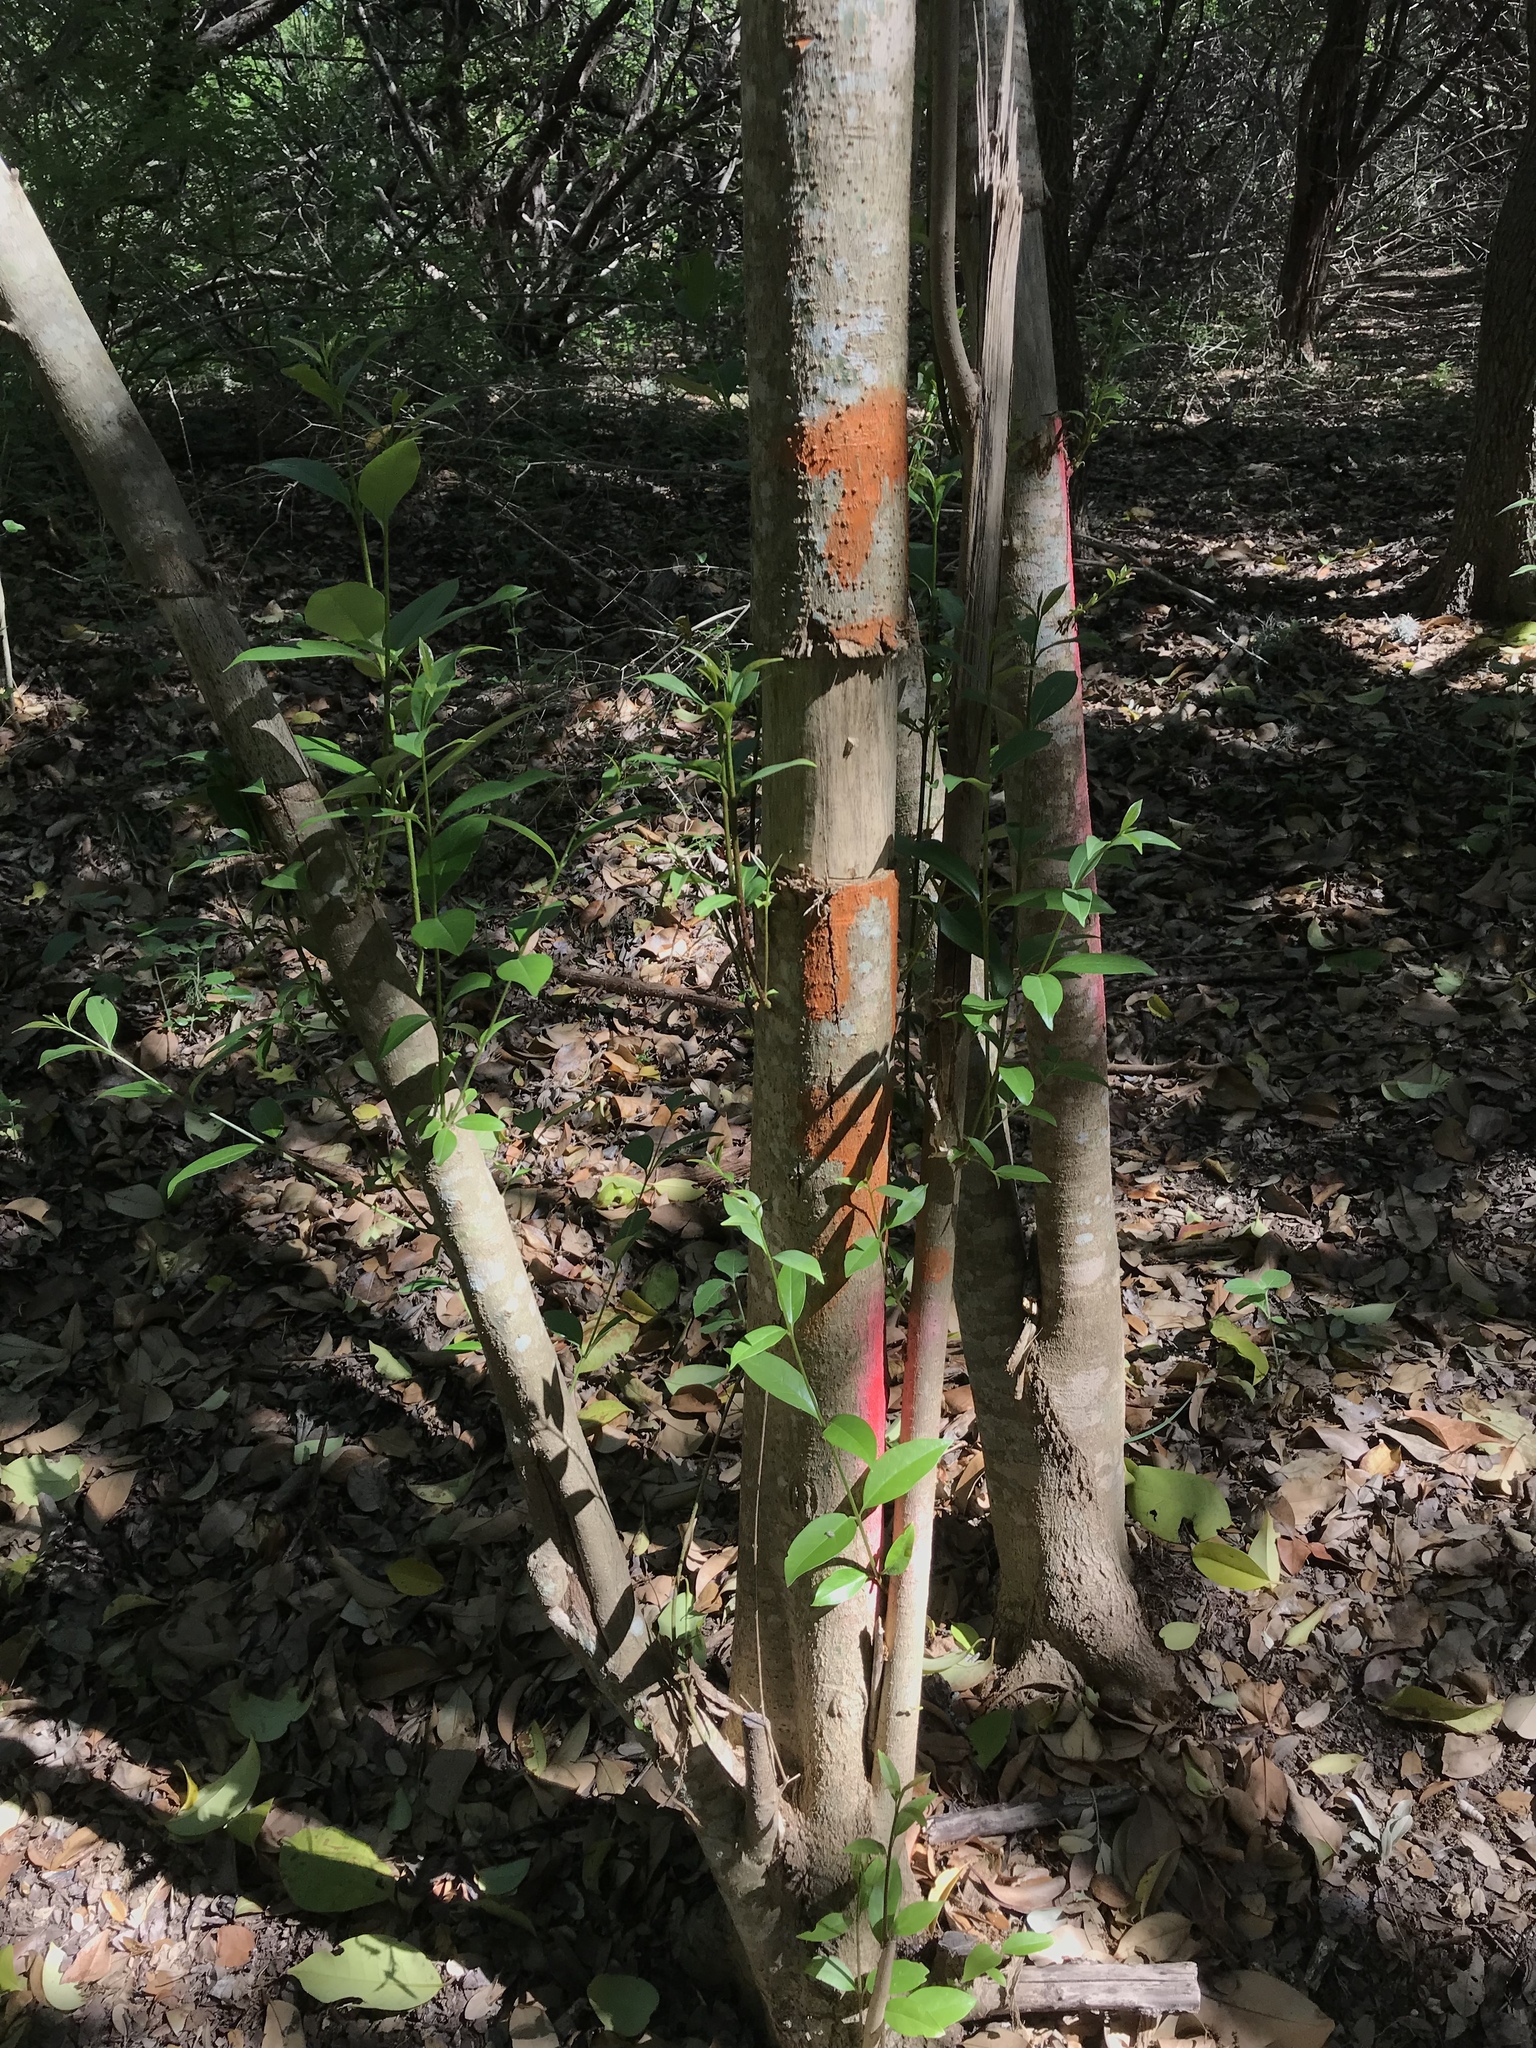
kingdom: Plantae
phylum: Tracheophyta
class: Magnoliopsida
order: Lamiales
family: Oleaceae
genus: Ligustrum
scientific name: Ligustrum lucidum
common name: Glossy privet
